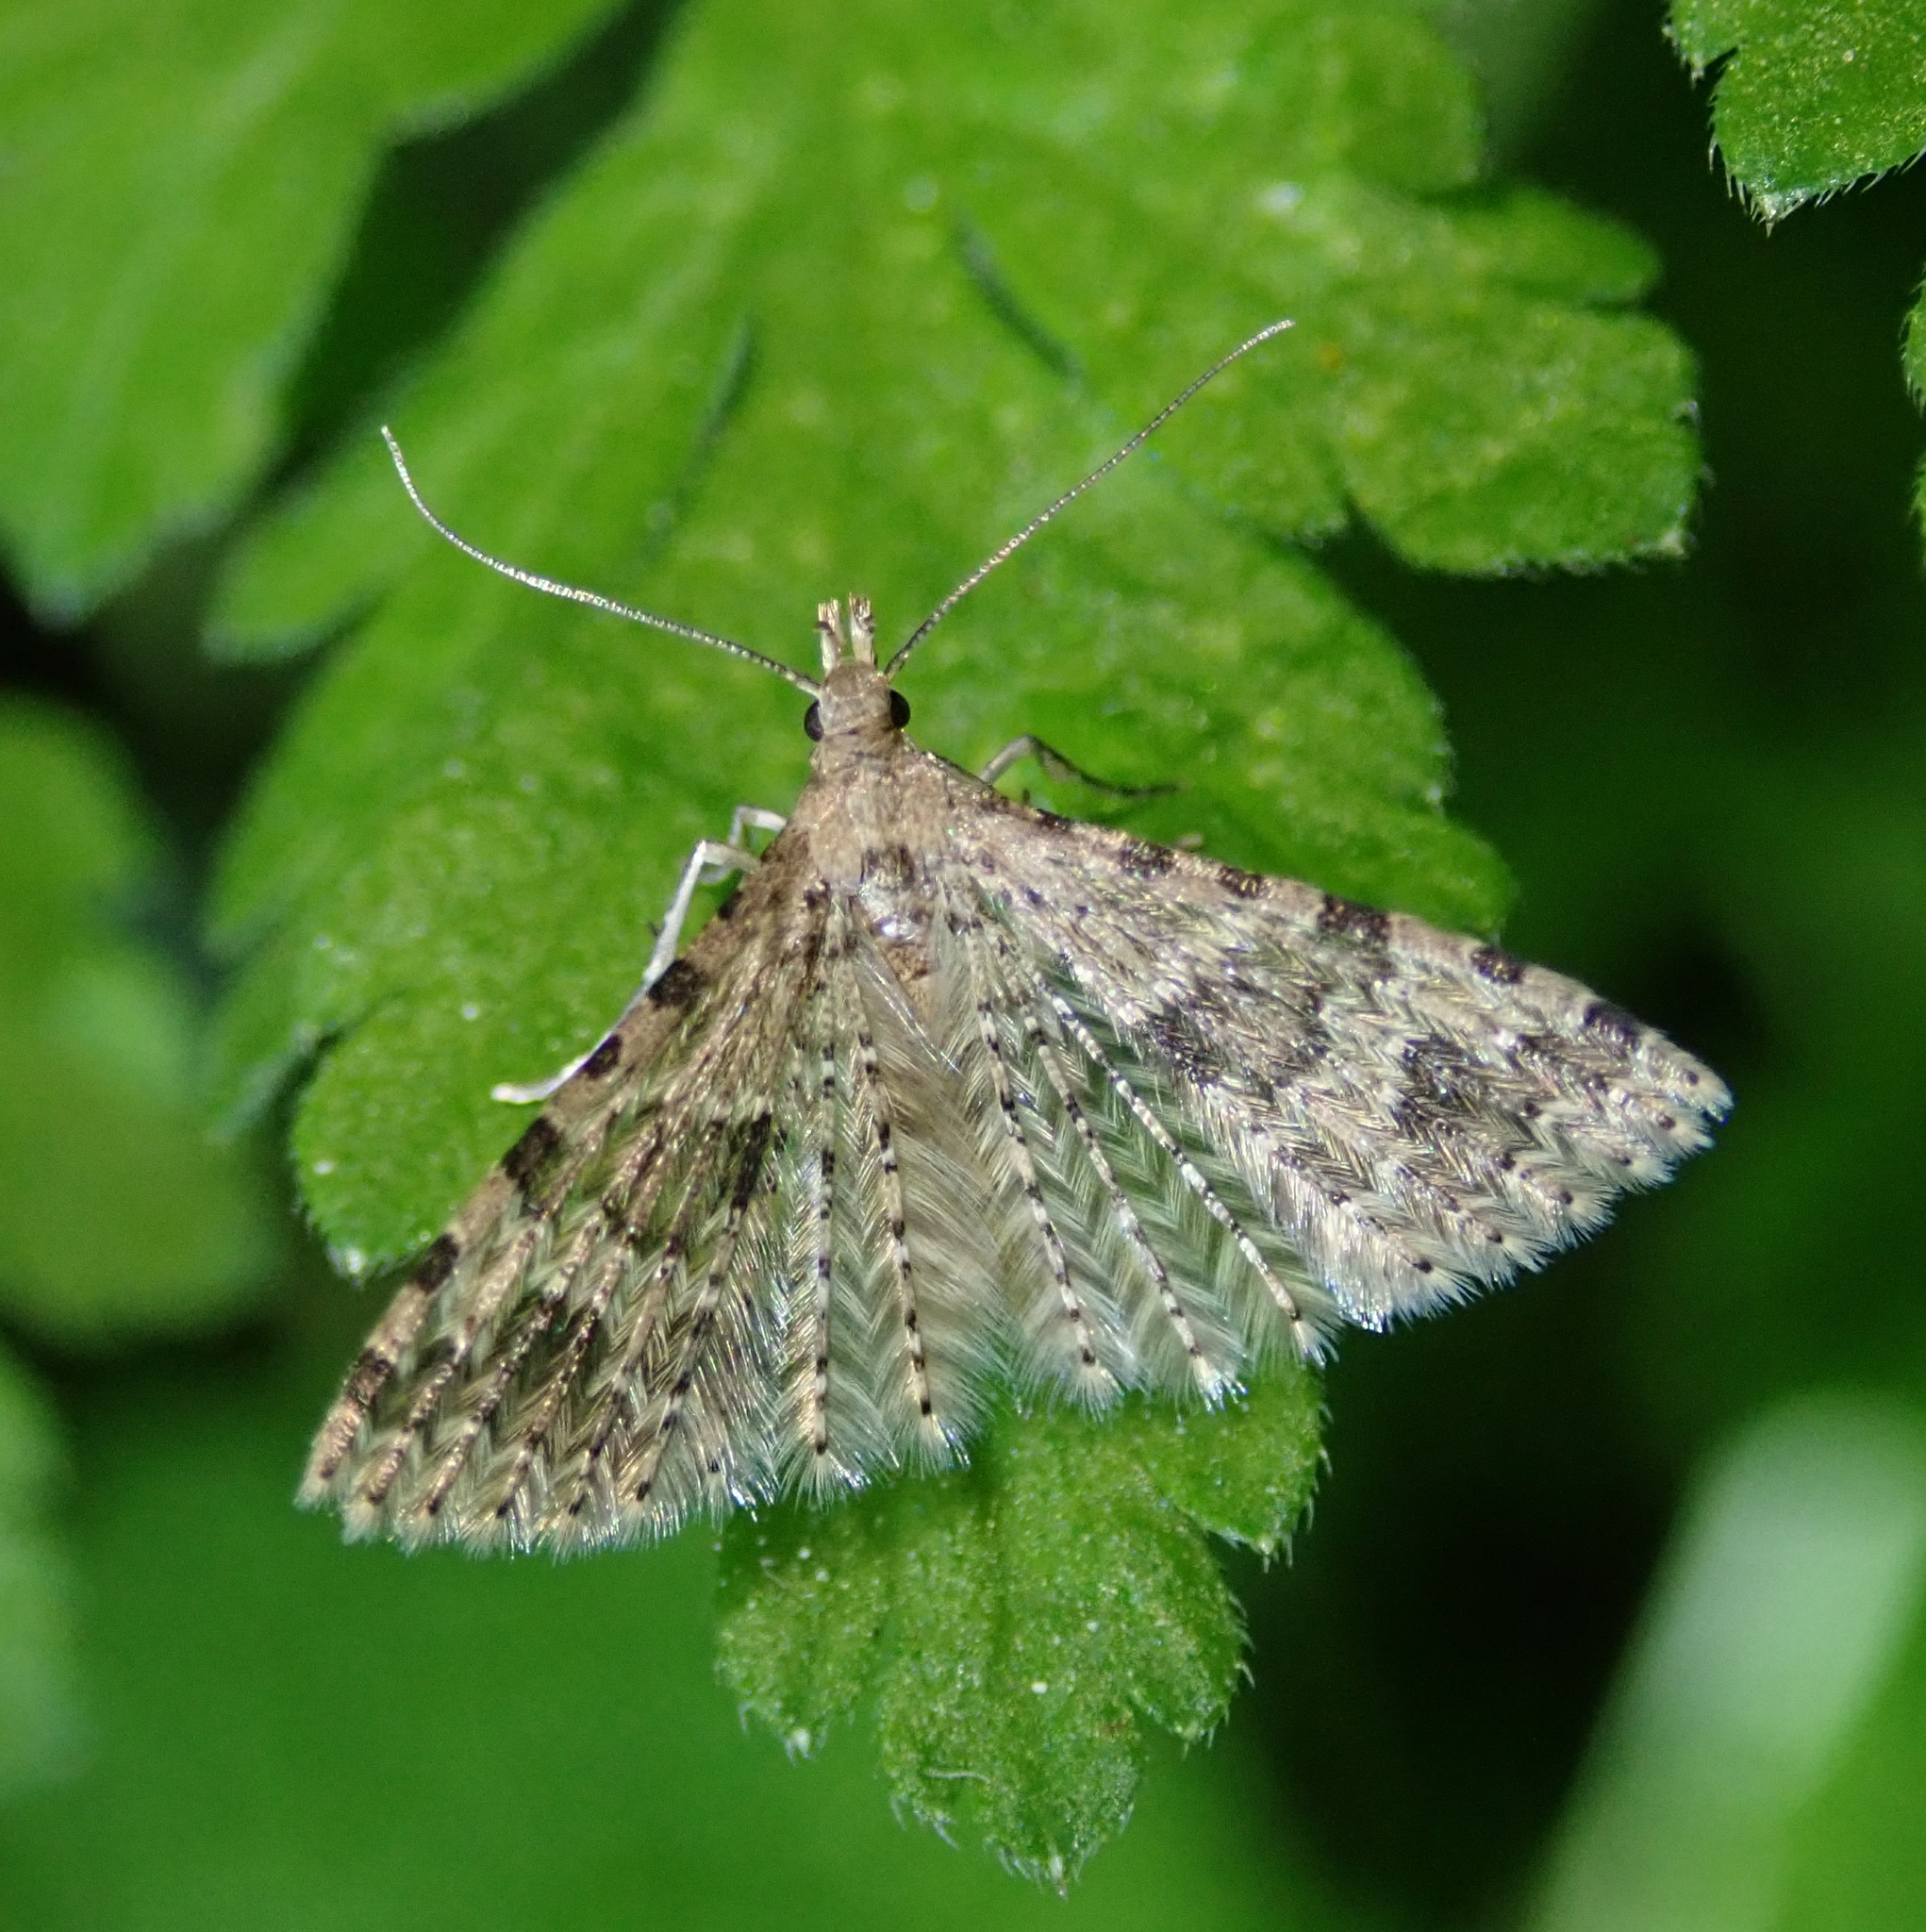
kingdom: Animalia
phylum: Arthropoda
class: Insecta
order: Lepidoptera
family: Alucitidae
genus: Alucita
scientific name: Alucita hexadactyla
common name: Twenty-plume moth
